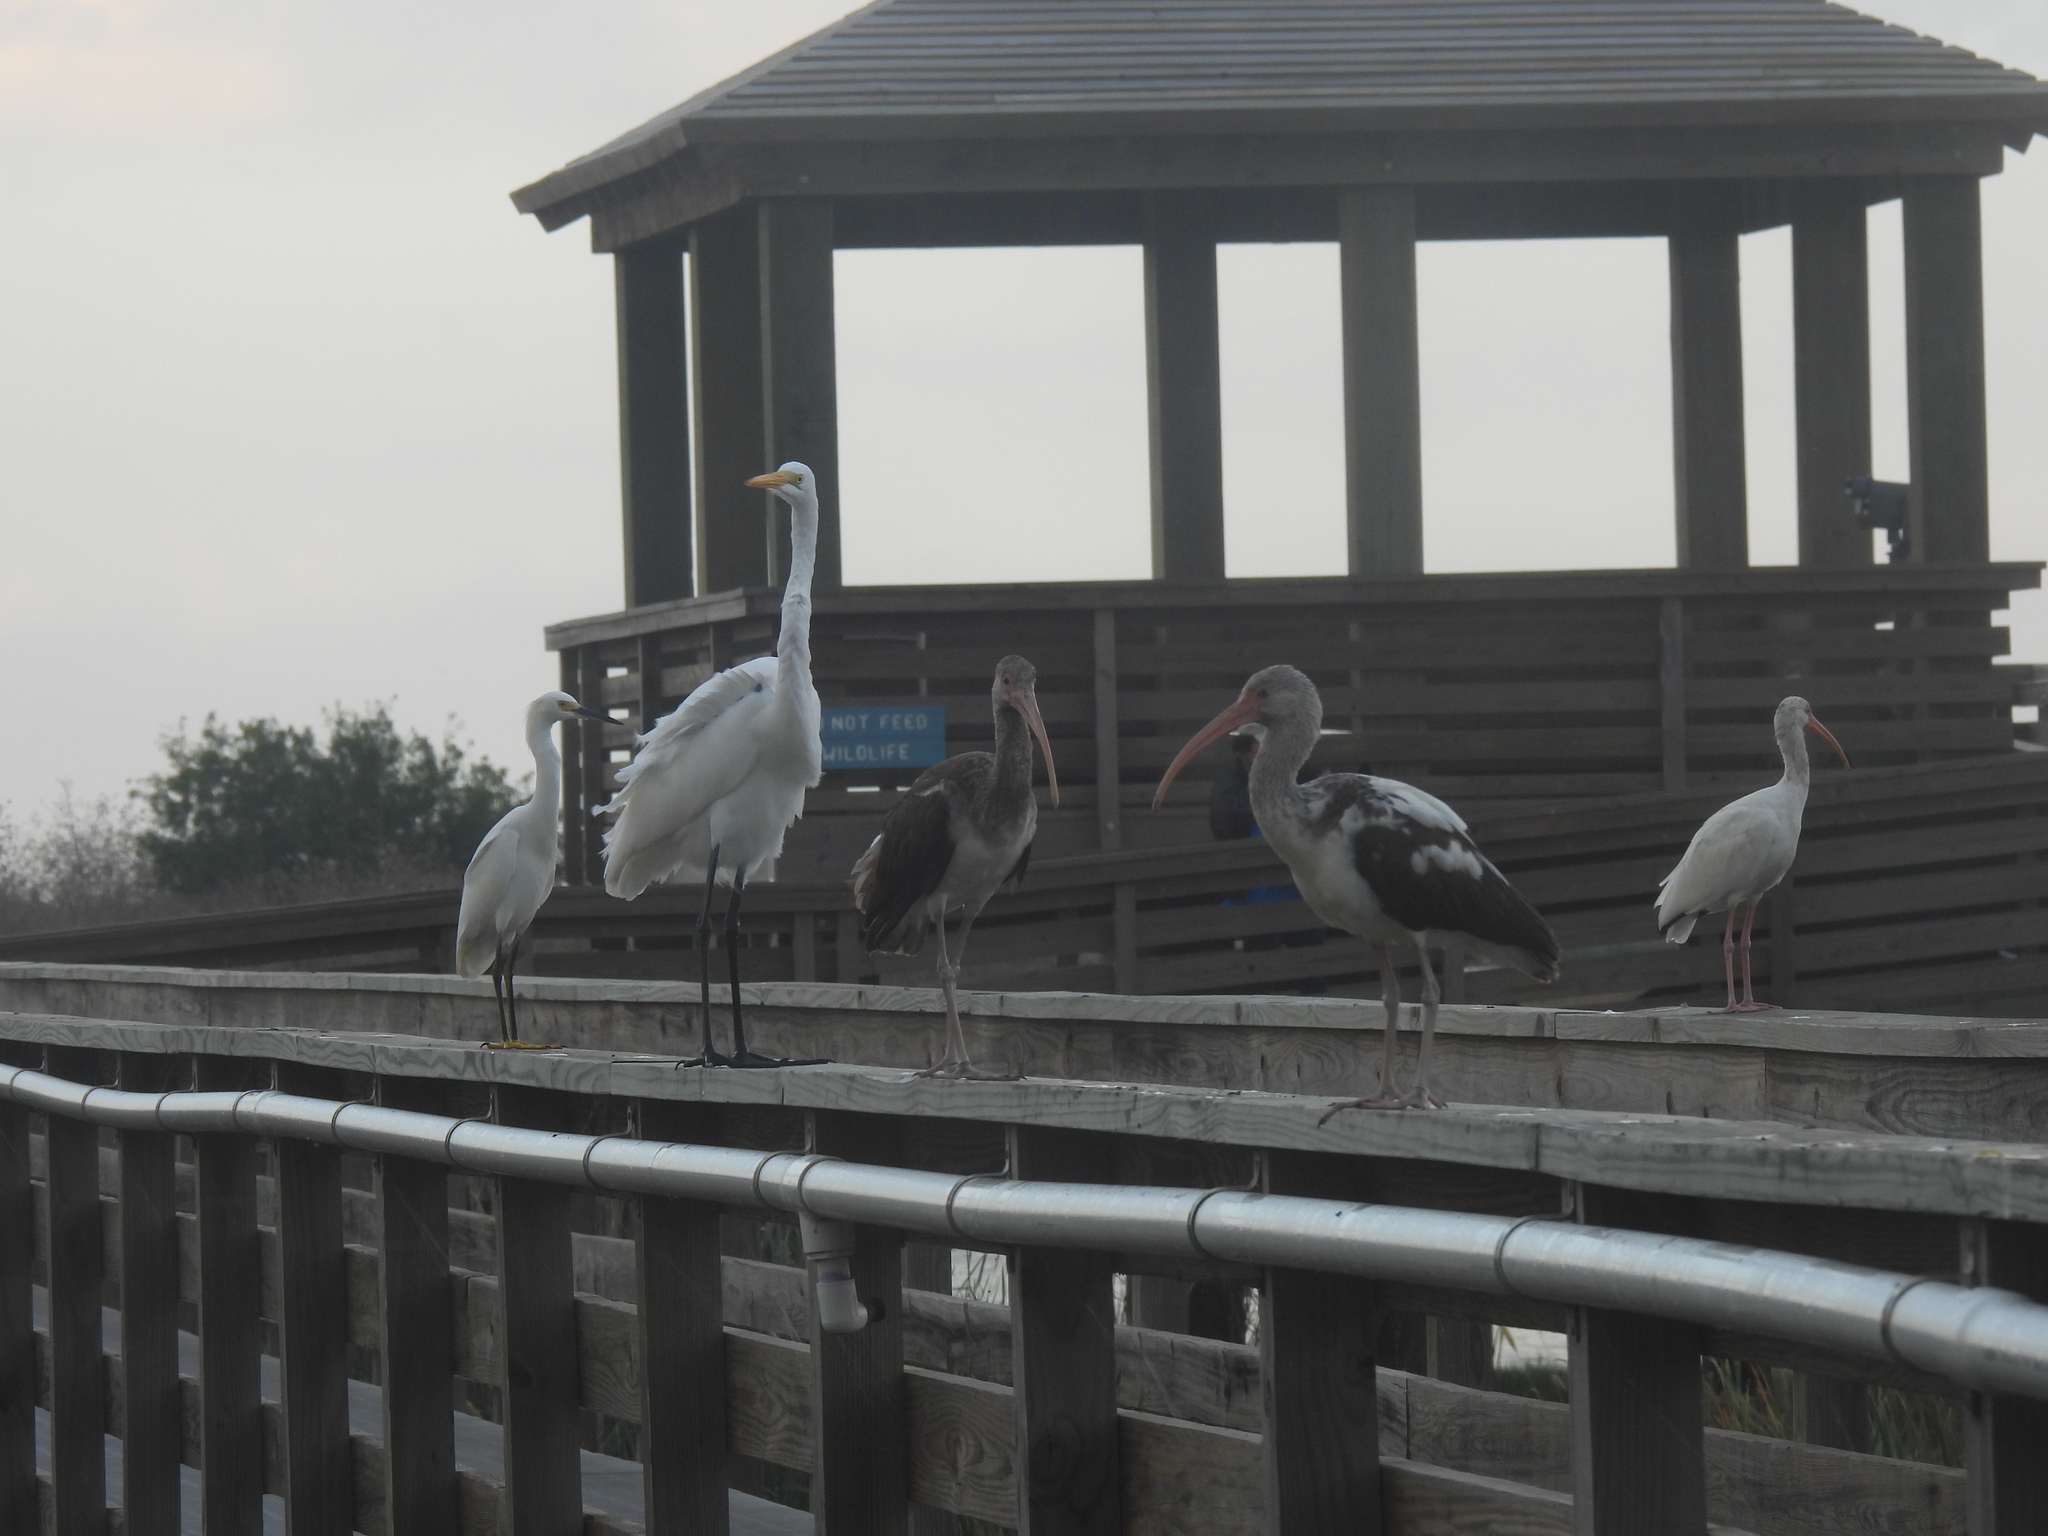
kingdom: Animalia
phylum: Chordata
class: Aves
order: Pelecaniformes
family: Threskiornithidae
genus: Eudocimus
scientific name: Eudocimus albus
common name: White ibis
